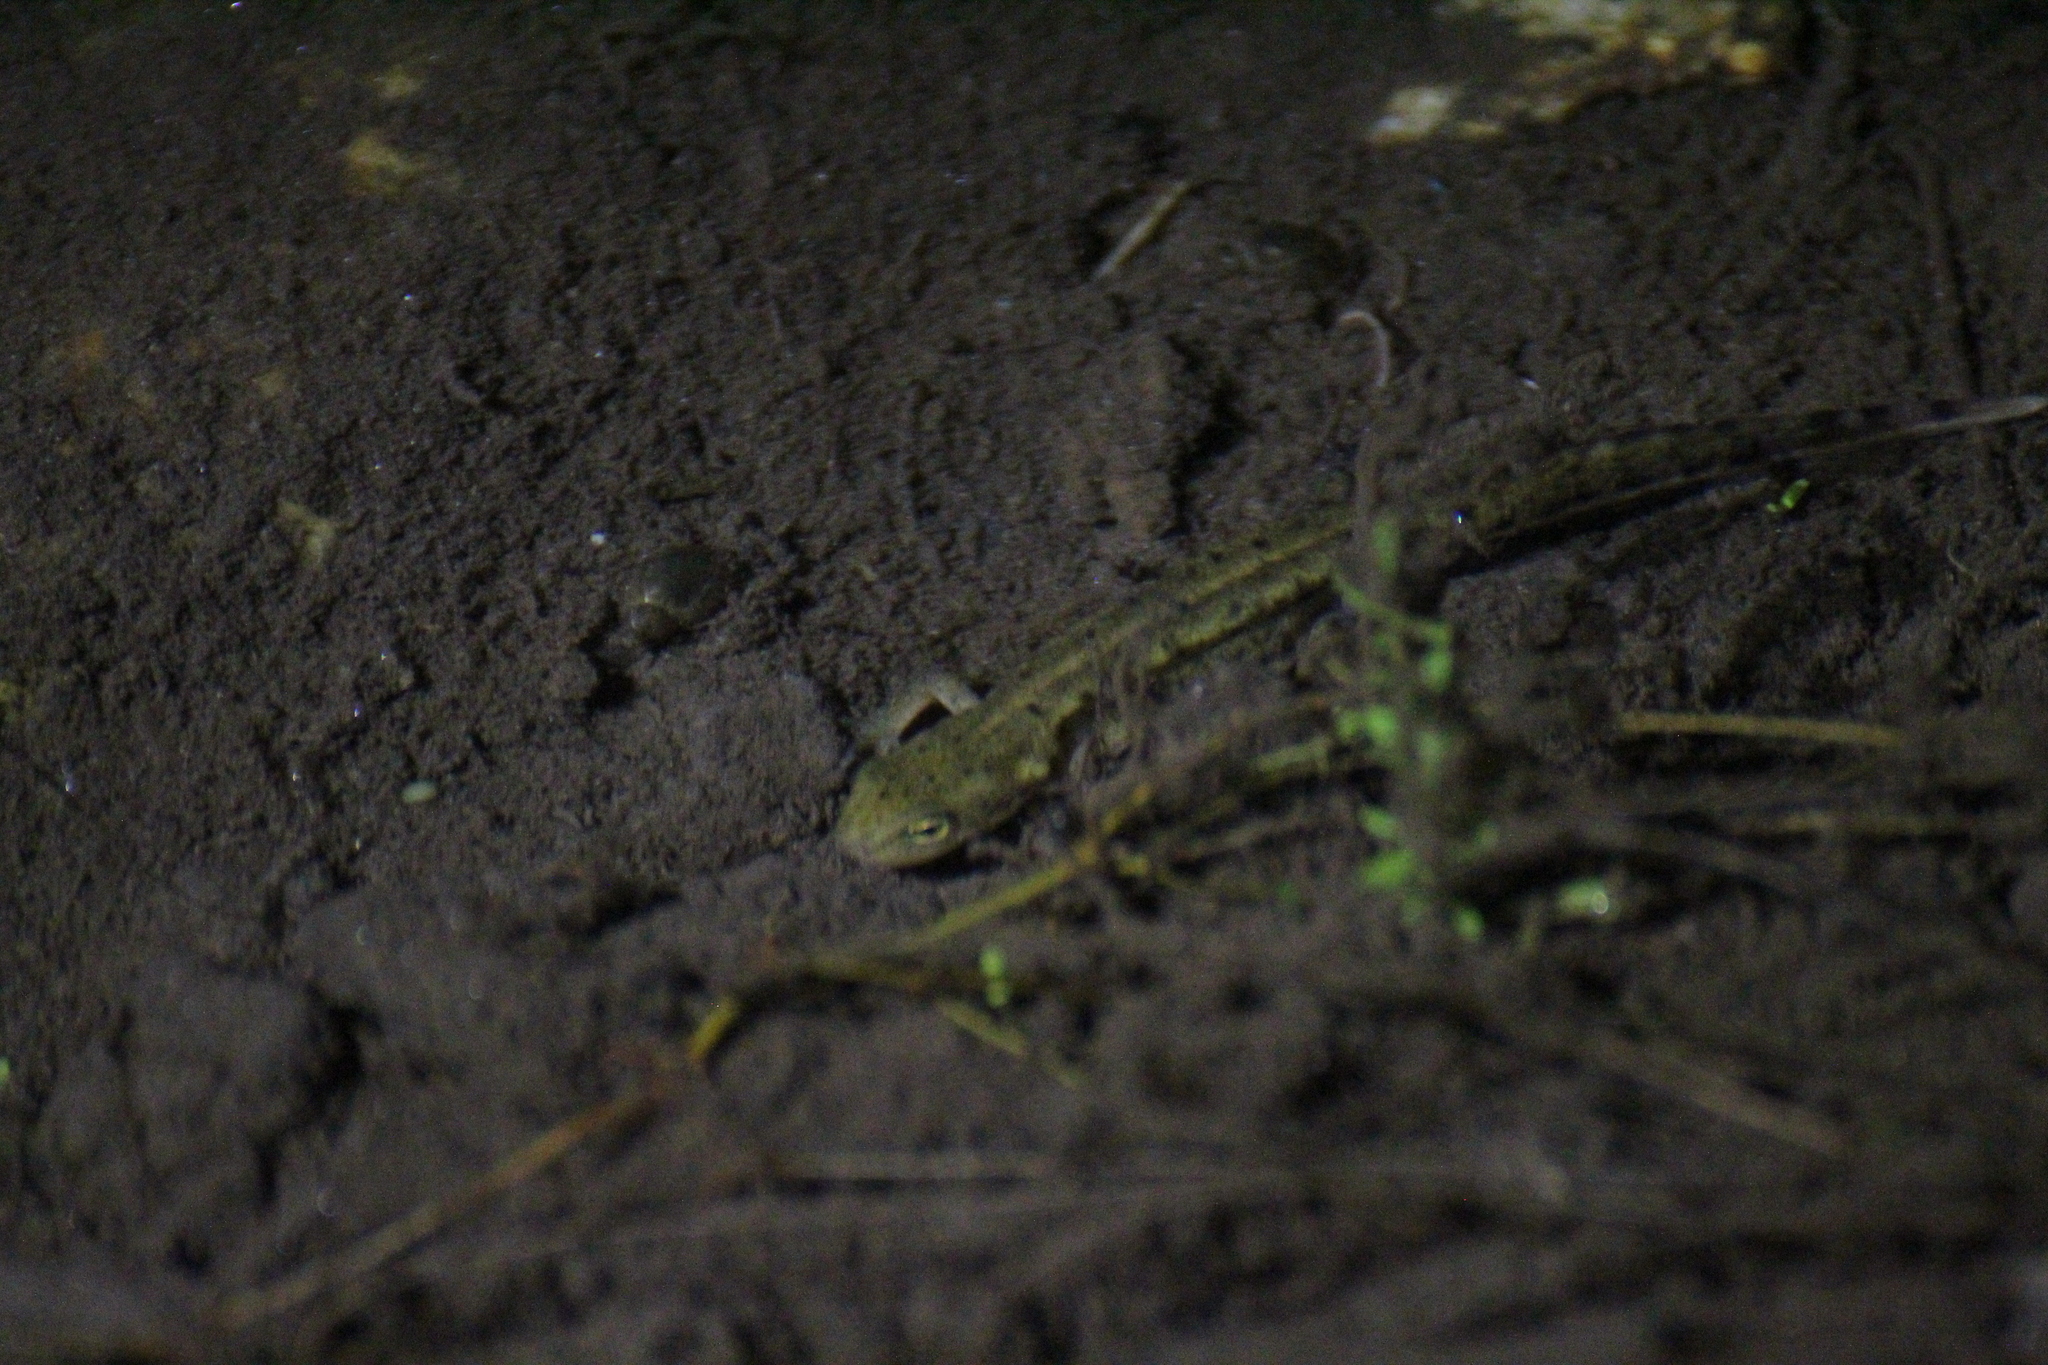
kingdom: Animalia
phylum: Chordata
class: Amphibia
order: Caudata
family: Salamandridae
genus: Lissotriton
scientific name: Lissotriton boscai
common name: Bosca's newt
